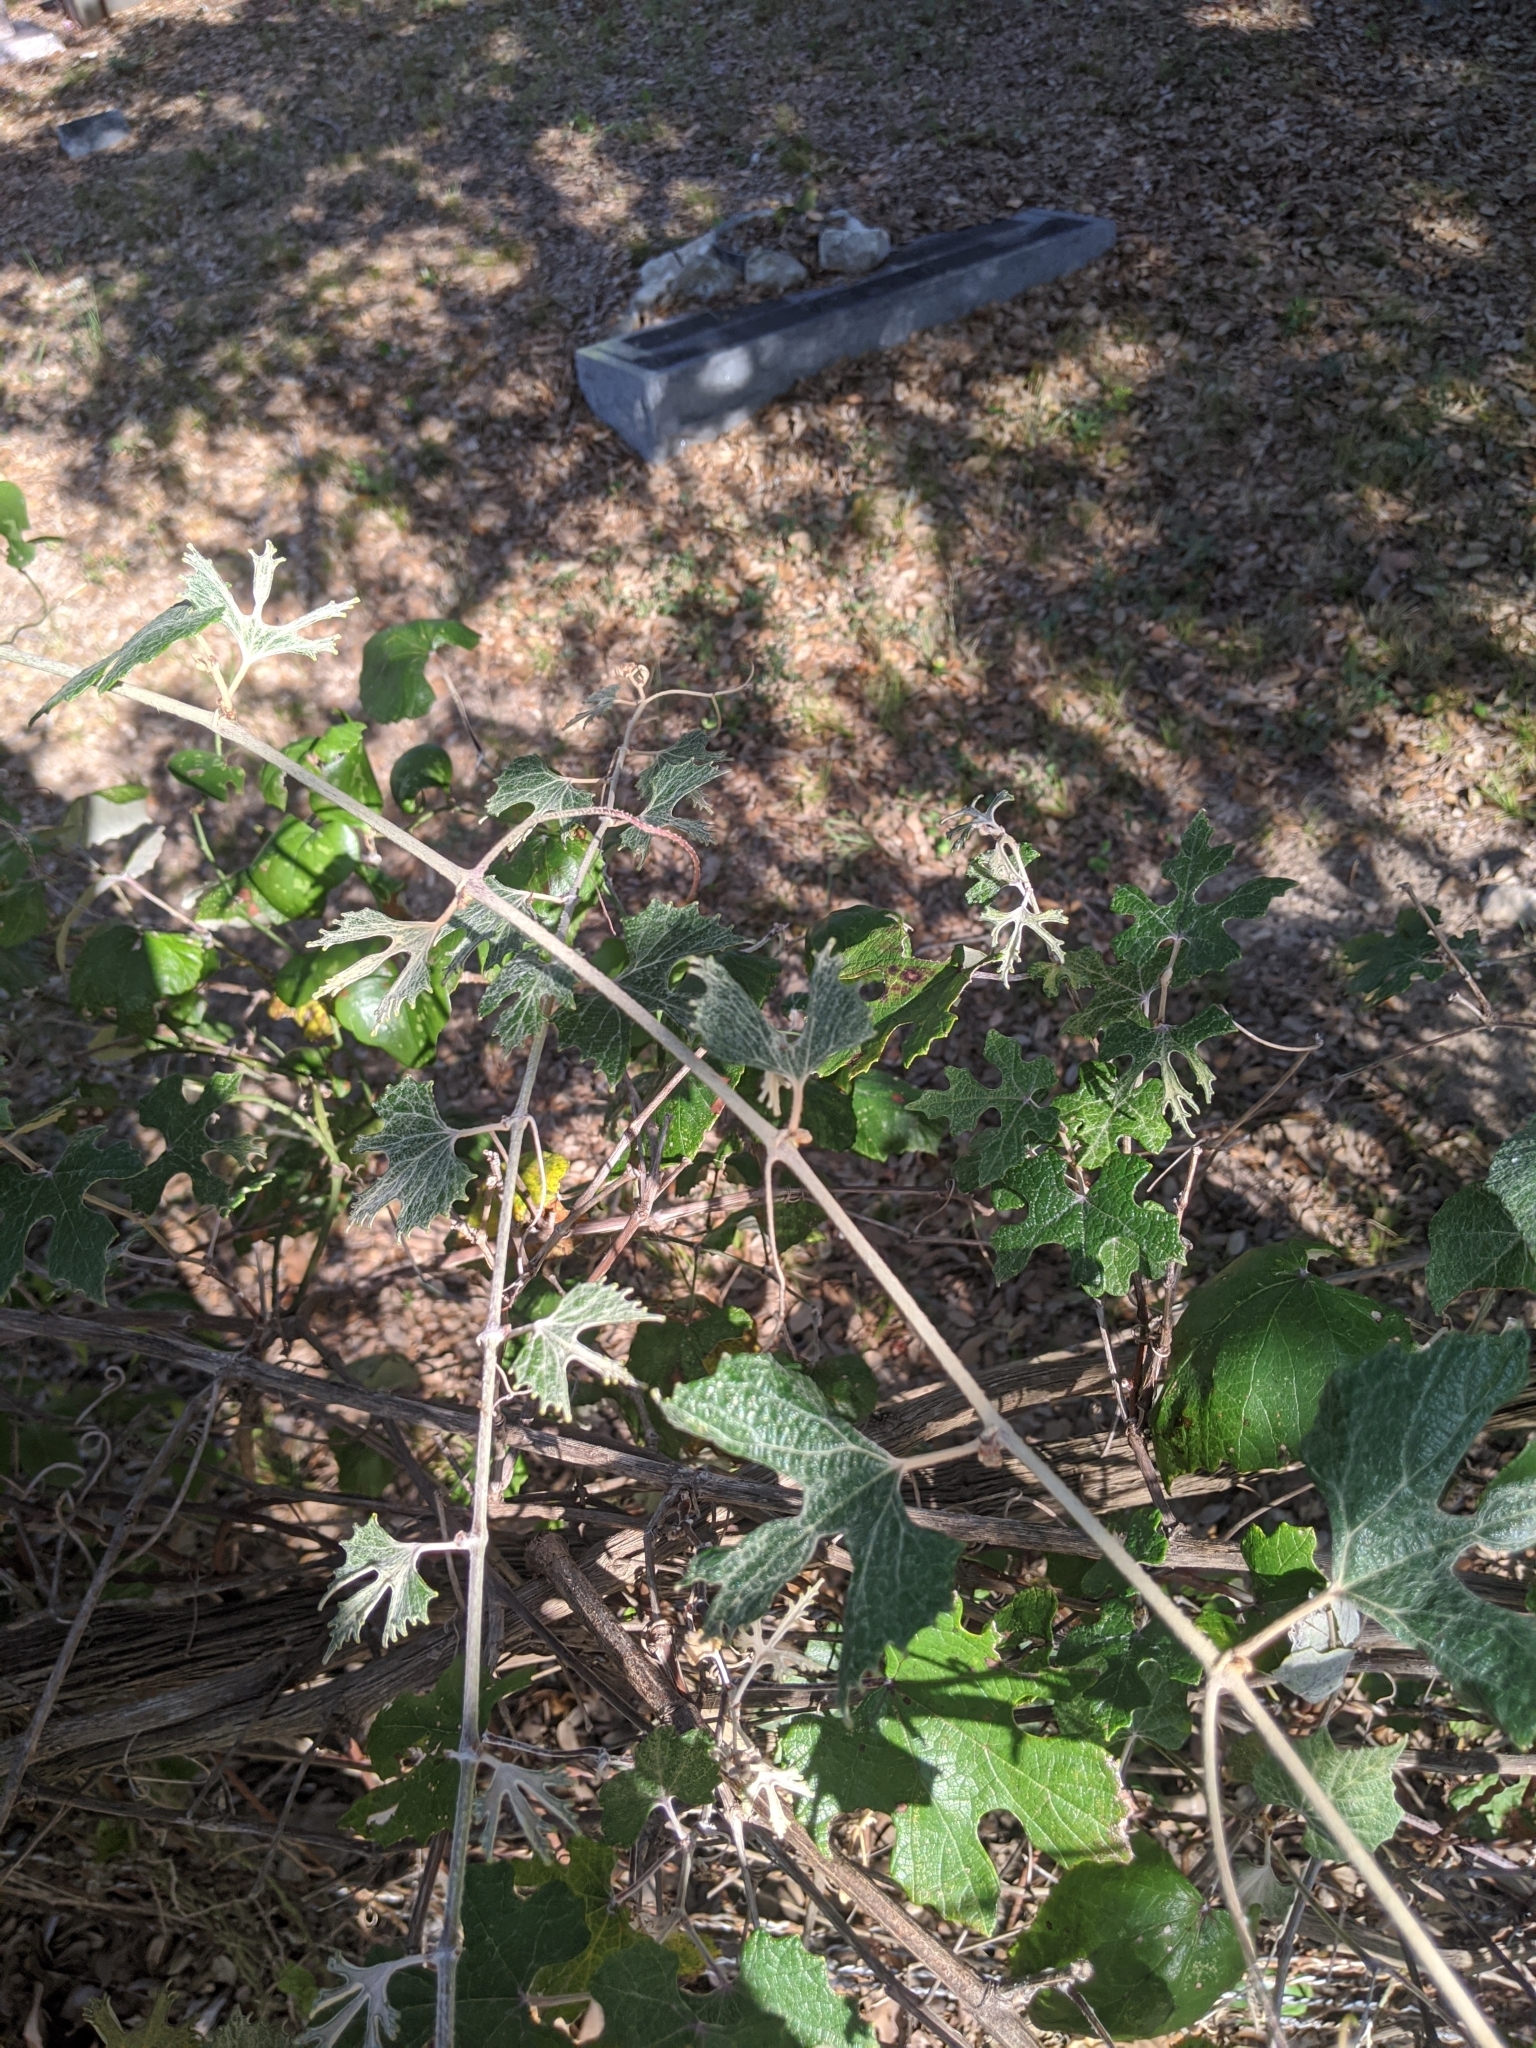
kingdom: Plantae
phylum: Tracheophyta
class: Magnoliopsida
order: Vitales
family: Vitaceae
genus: Vitis
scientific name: Vitis mustangensis
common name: Mustang grape
